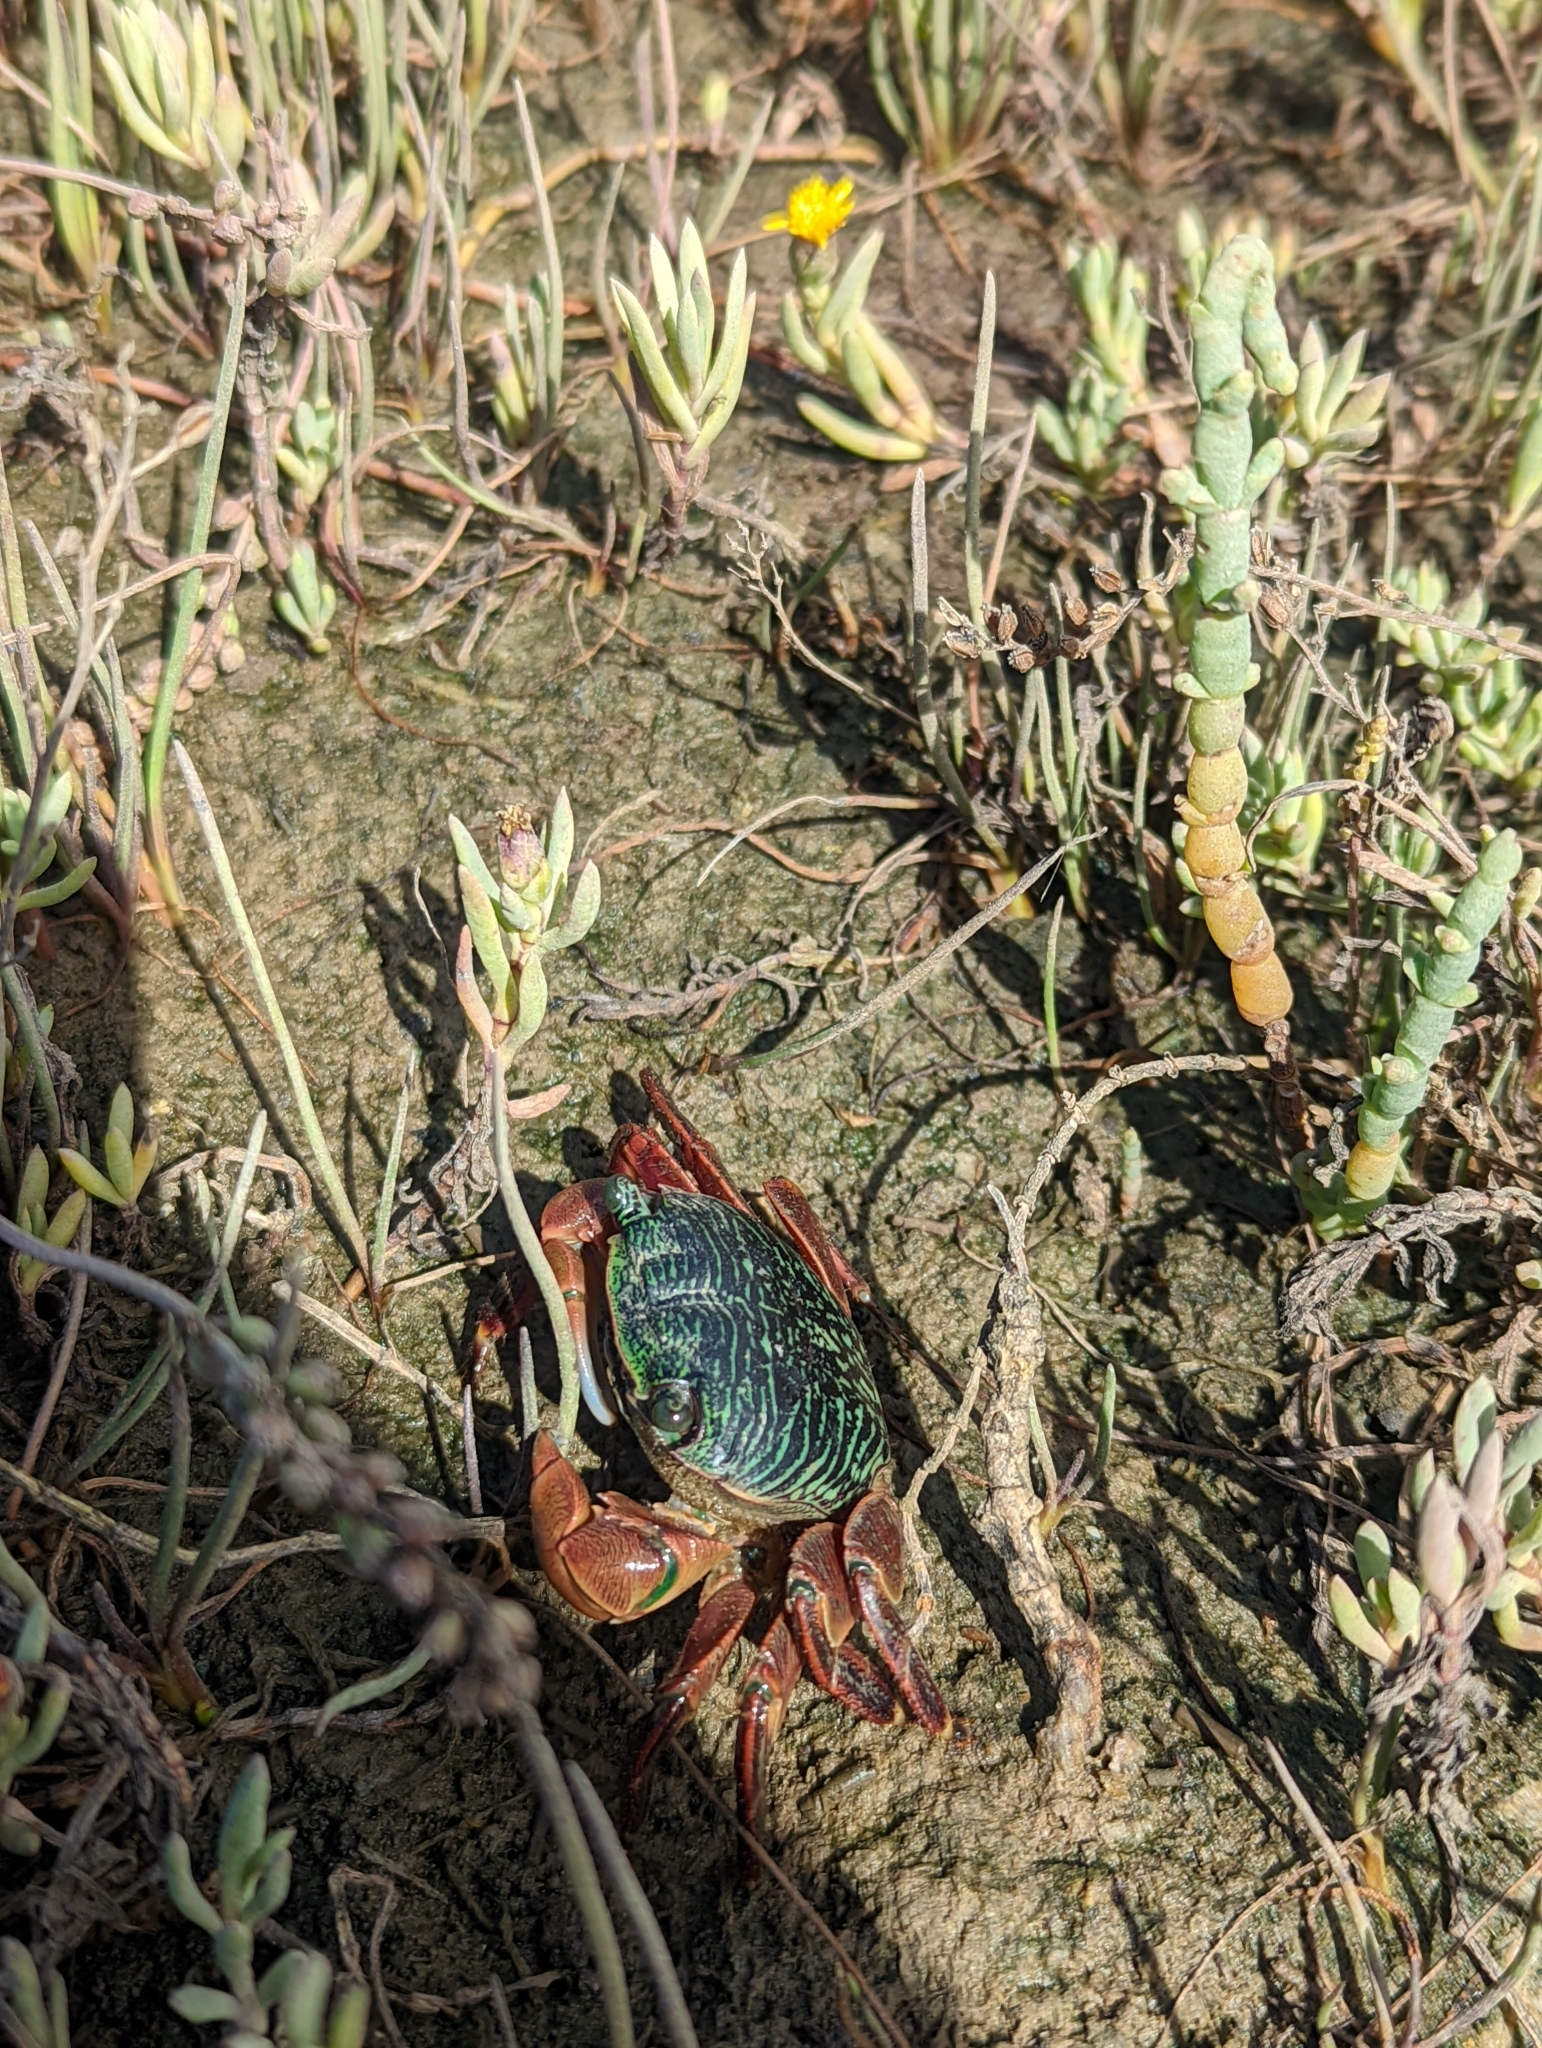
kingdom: Animalia
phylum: Arthropoda
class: Malacostraca
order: Decapoda
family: Grapsidae
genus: Pachygrapsus
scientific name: Pachygrapsus crassipes
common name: Striped shore crab
